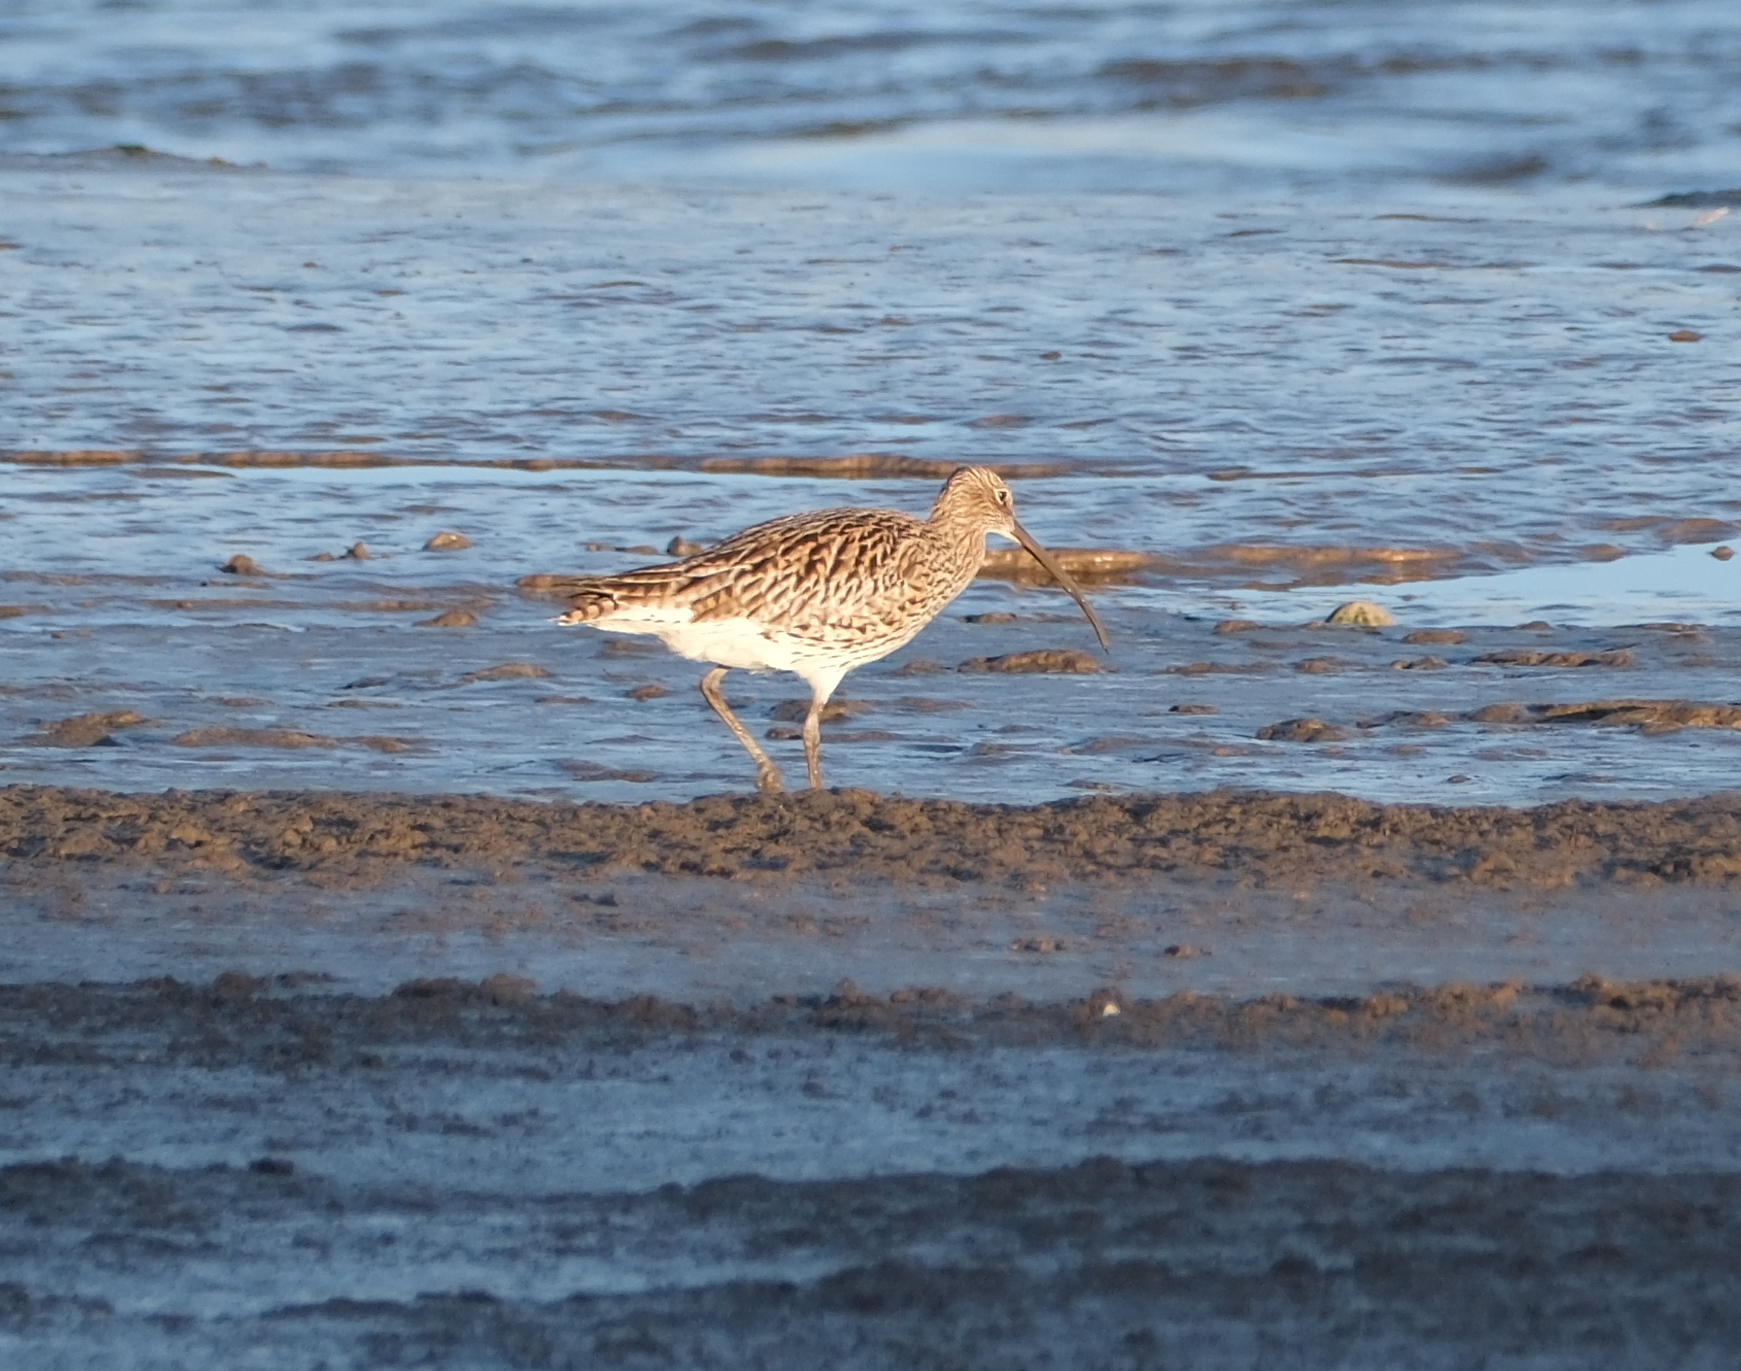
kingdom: Animalia
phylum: Chordata
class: Aves
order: Charadriiformes
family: Scolopacidae
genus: Numenius
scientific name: Numenius arquata
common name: Eurasian curlew
